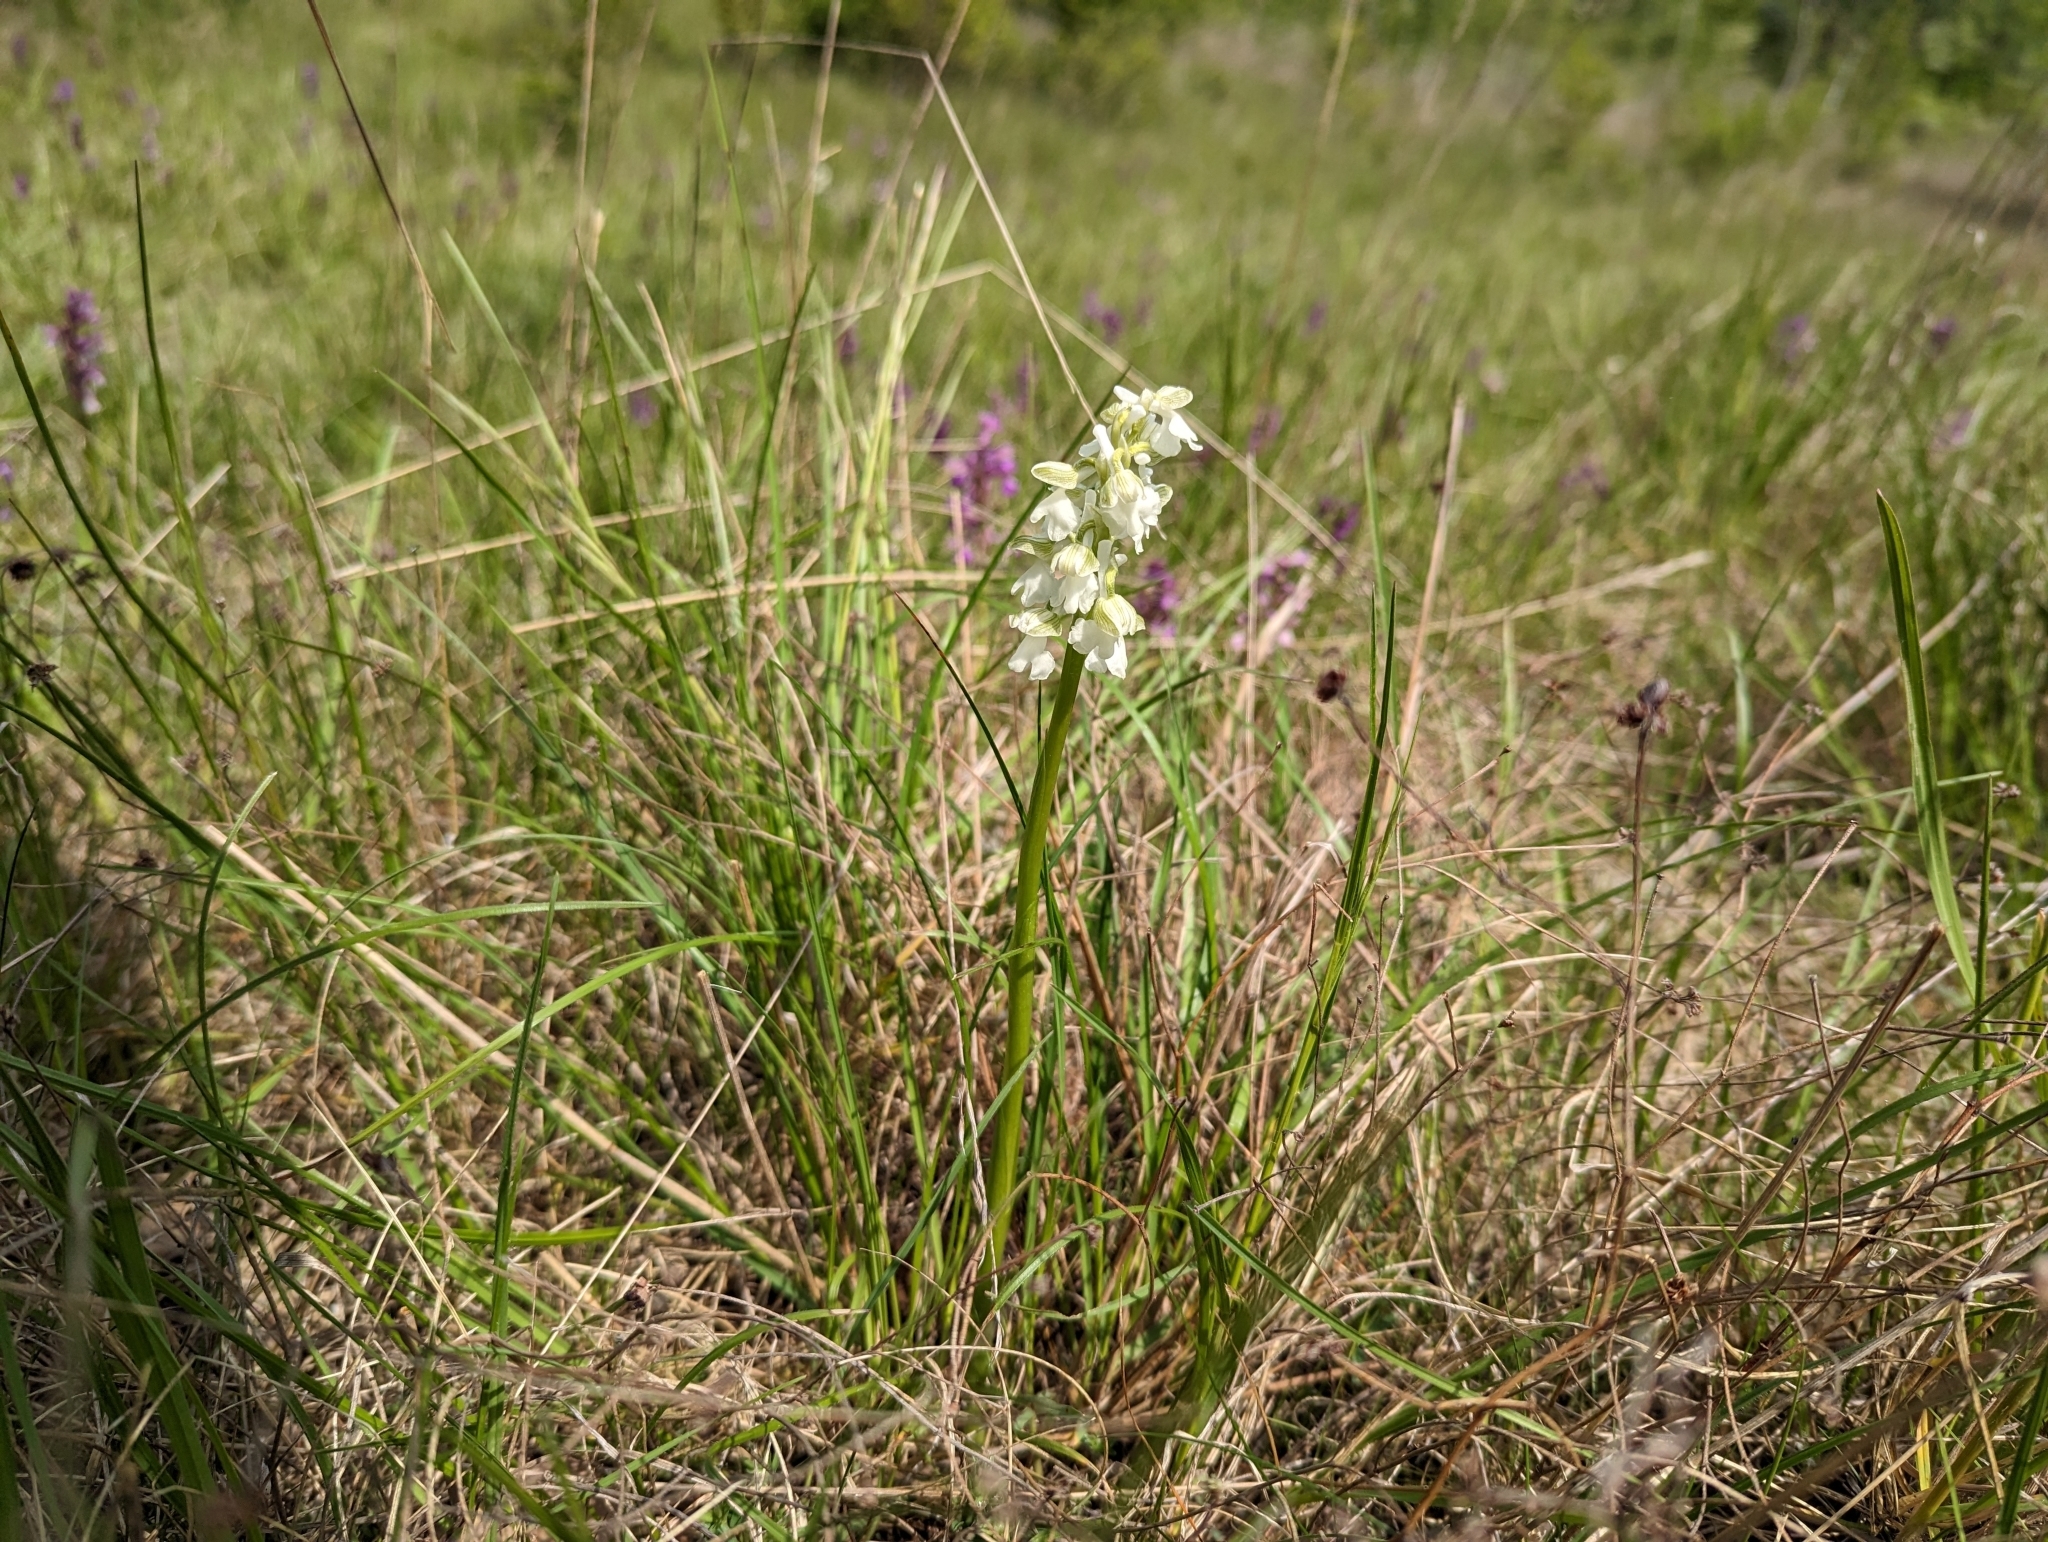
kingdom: Plantae
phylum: Tracheophyta
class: Liliopsida
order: Asparagales
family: Orchidaceae
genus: Anacamptis
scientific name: Anacamptis morio
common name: Green-winged orchid
